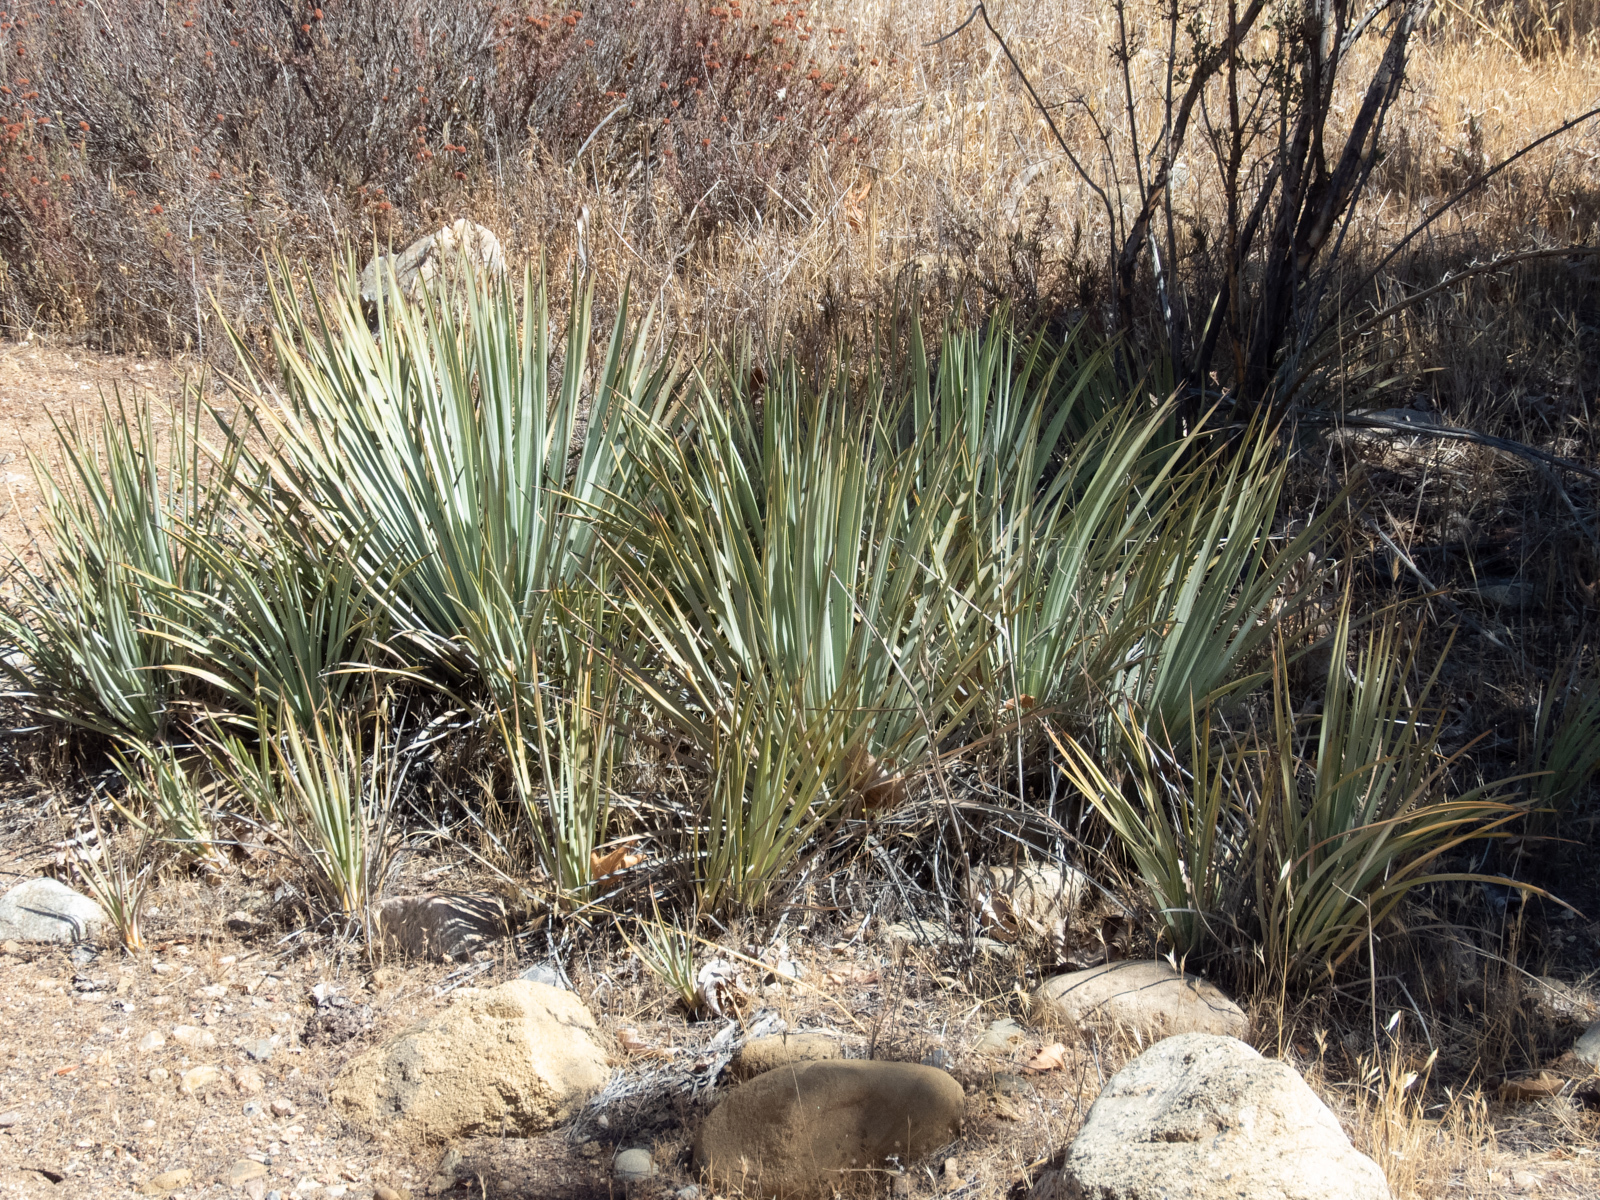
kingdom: Plantae
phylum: Tracheophyta
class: Liliopsida
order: Asparagales
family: Asparagaceae
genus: Hesperoyucca
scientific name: Hesperoyucca whipplei
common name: Our lord's-candle
